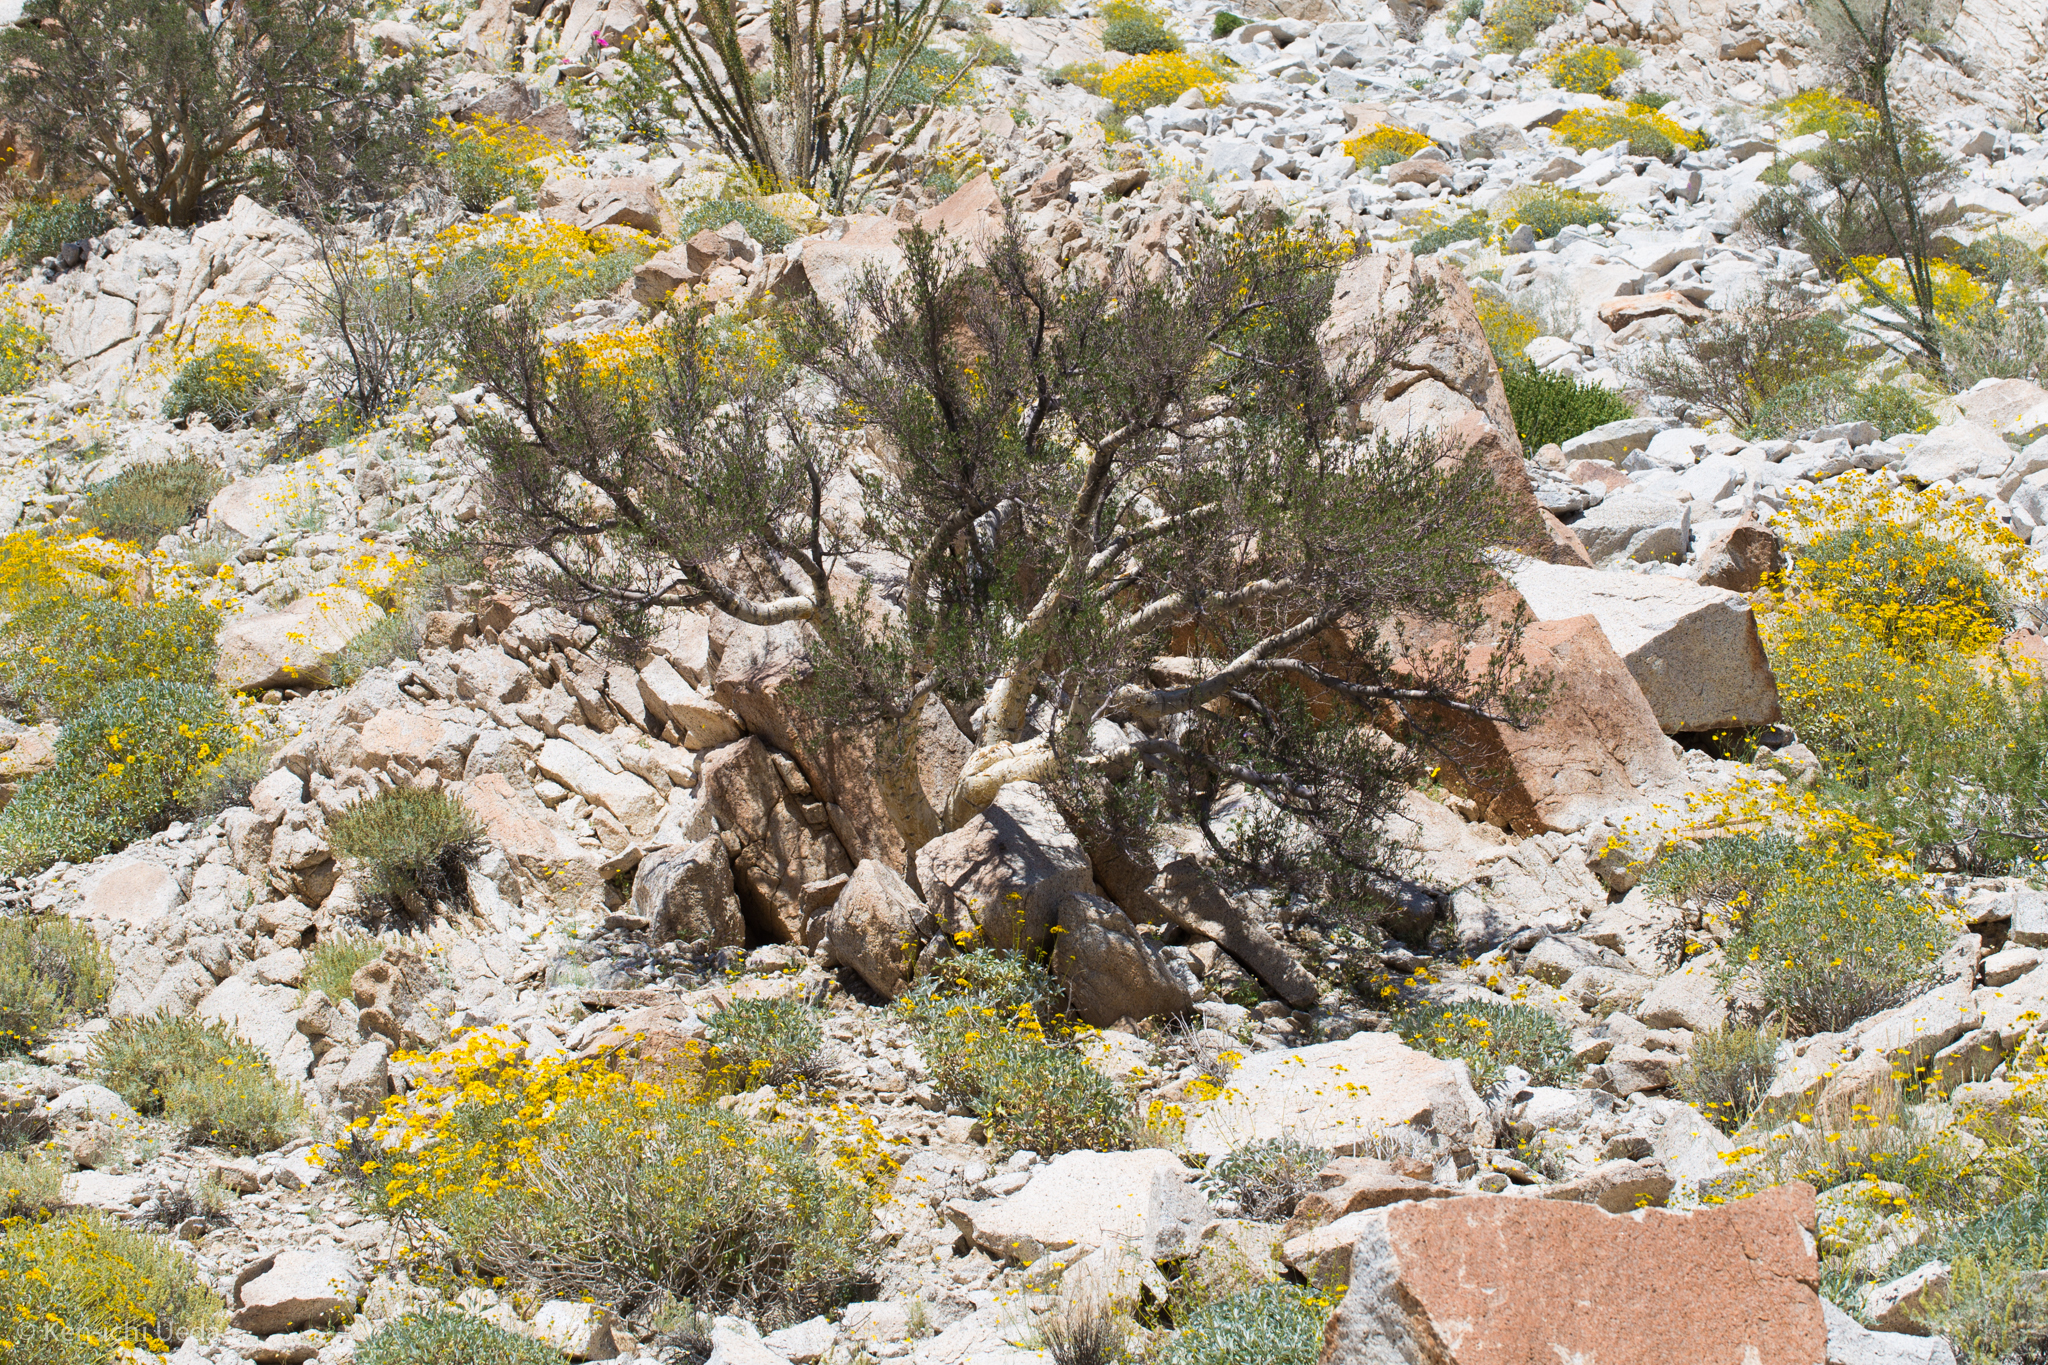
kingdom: Plantae
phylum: Tracheophyta
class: Magnoliopsida
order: Sapindales
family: Burseraceae
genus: Bursera
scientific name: Bursera microphylla
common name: Elephant tree
